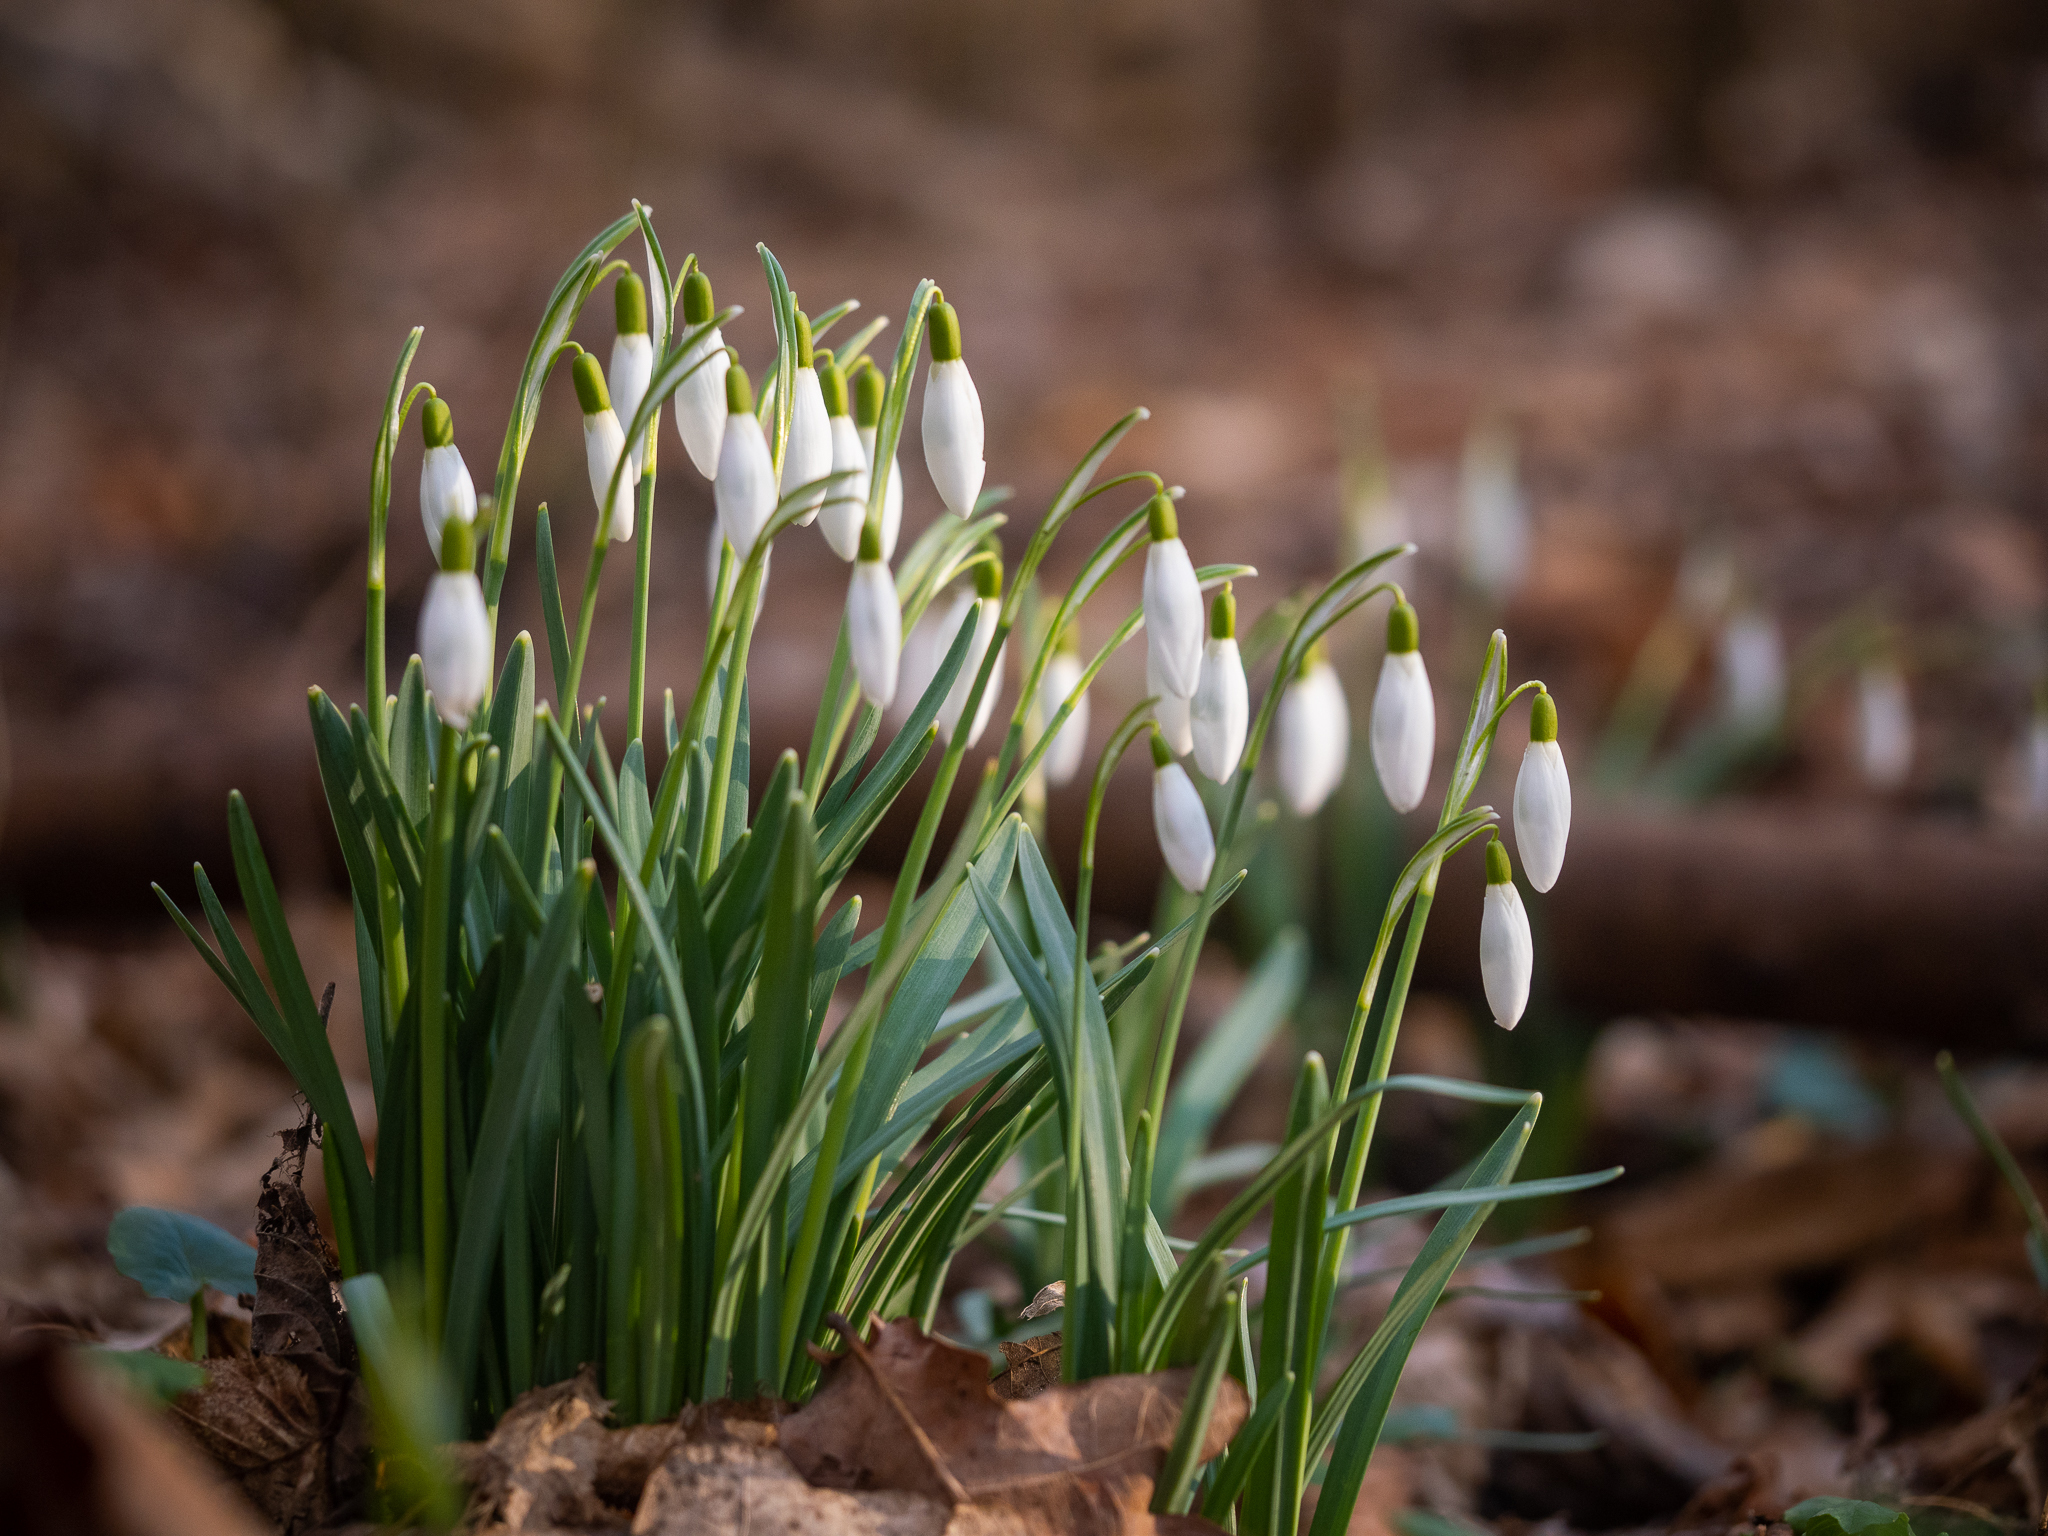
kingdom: Plantae
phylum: Tracheophyta
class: Liliopsida
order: Asparagales
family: Amaryllidaceae
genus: Galanthus
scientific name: Galanthus nivalis
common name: Snowdrop
